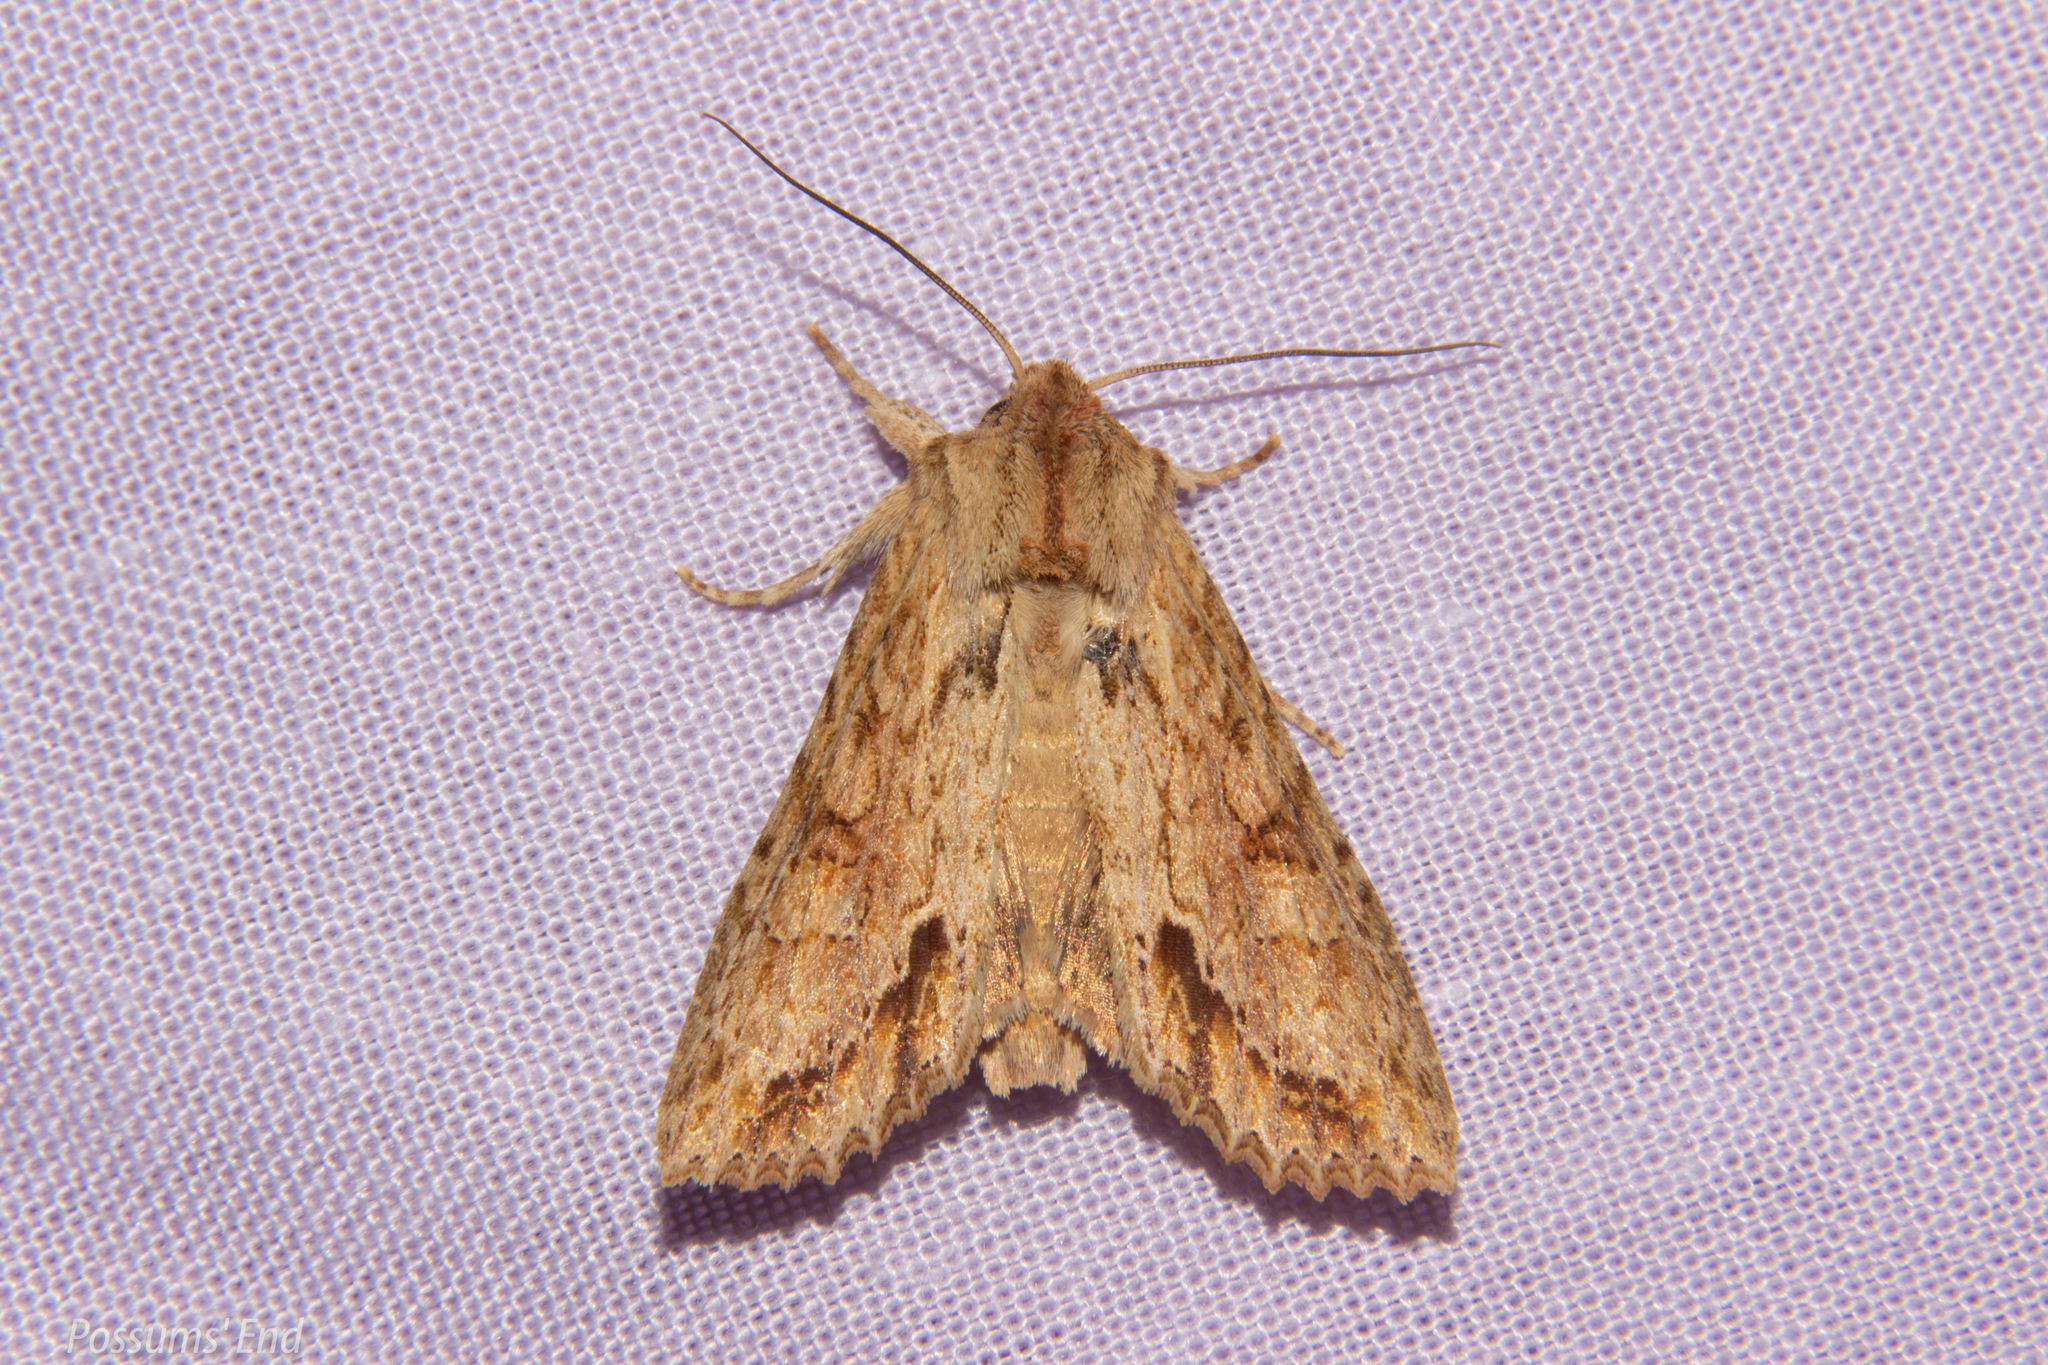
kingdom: Animalia
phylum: Arthropoda
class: Insecta
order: Lepidoptera
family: Noctuidae
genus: Ichneutica
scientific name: Ichneutica mollis
